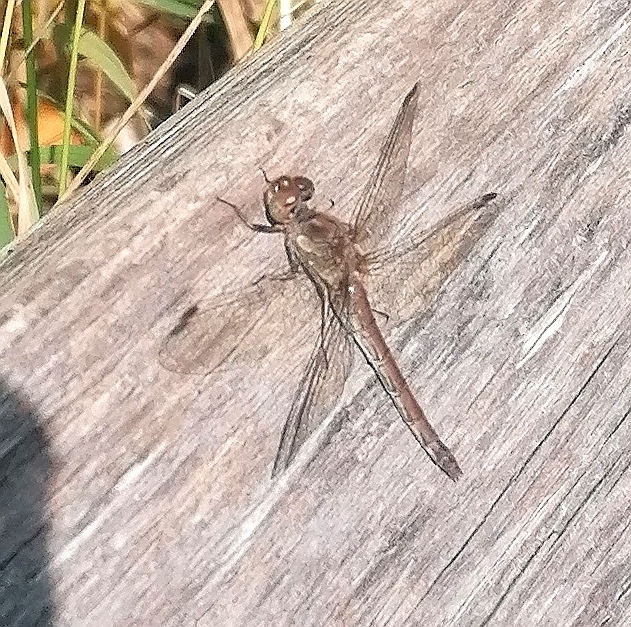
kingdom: Animalia
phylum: Arthropoda
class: Insecta
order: Odonata
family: Libellulidae
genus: Sympetrum
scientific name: Sympetrum striolatum
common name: Common darter
